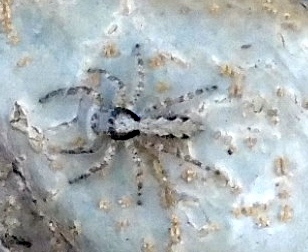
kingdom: Animalia
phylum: Arthropoda
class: Arachnida
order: Araneae
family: Salticidae
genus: Balmaceda
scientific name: Balmaceda
